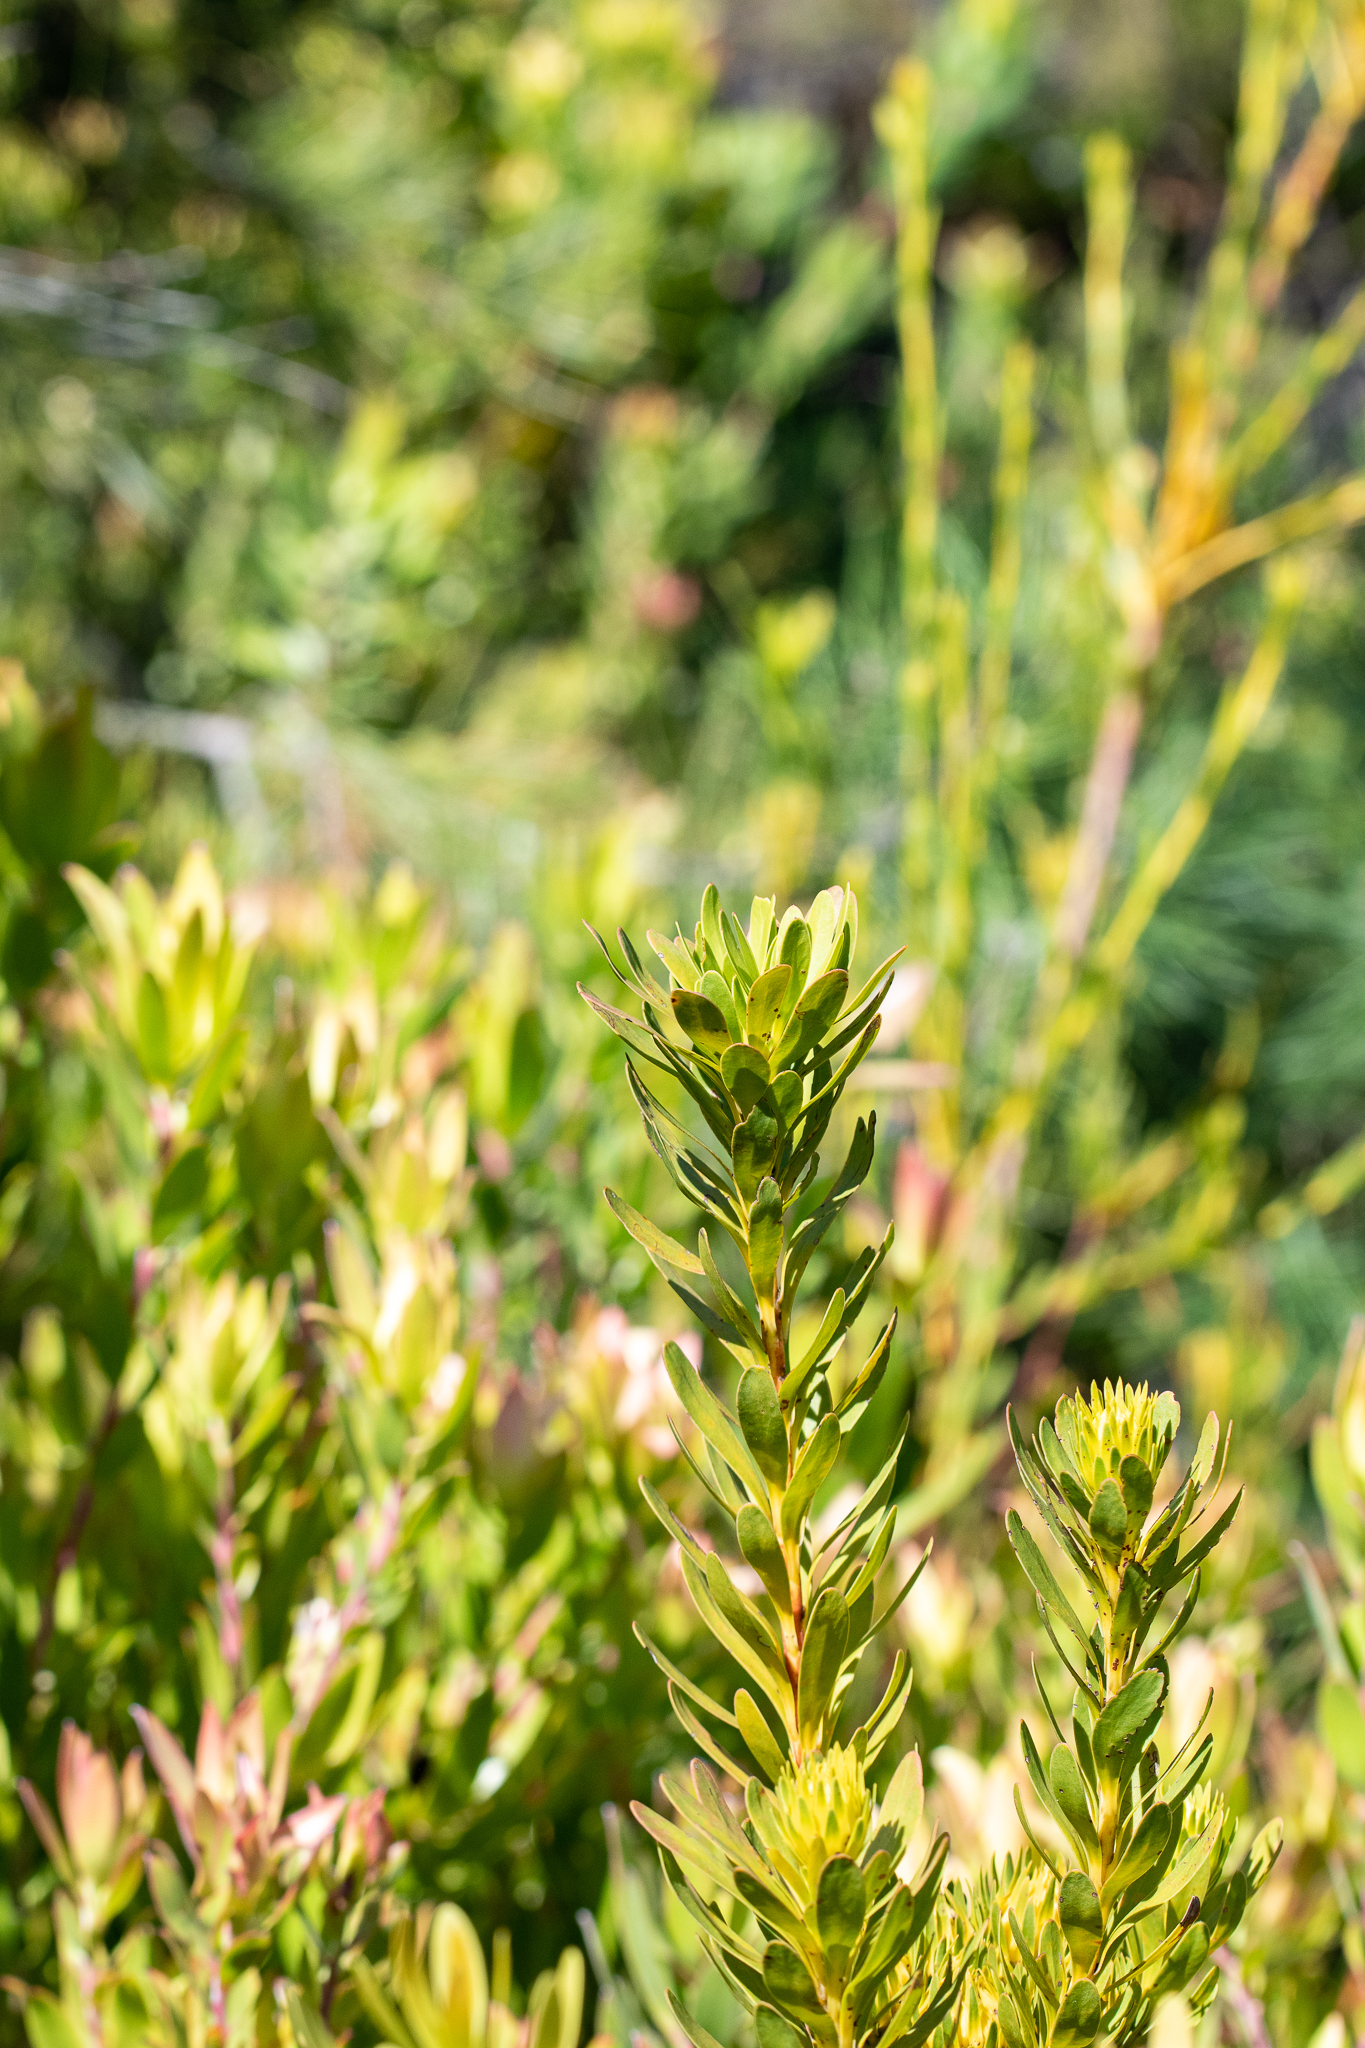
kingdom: Plantae
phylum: Tracheophyta
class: Magnoliopsida
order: Proteales
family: Proteaceae
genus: Aulax
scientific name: Aulax umbellata
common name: Broad-leaf featherbush
